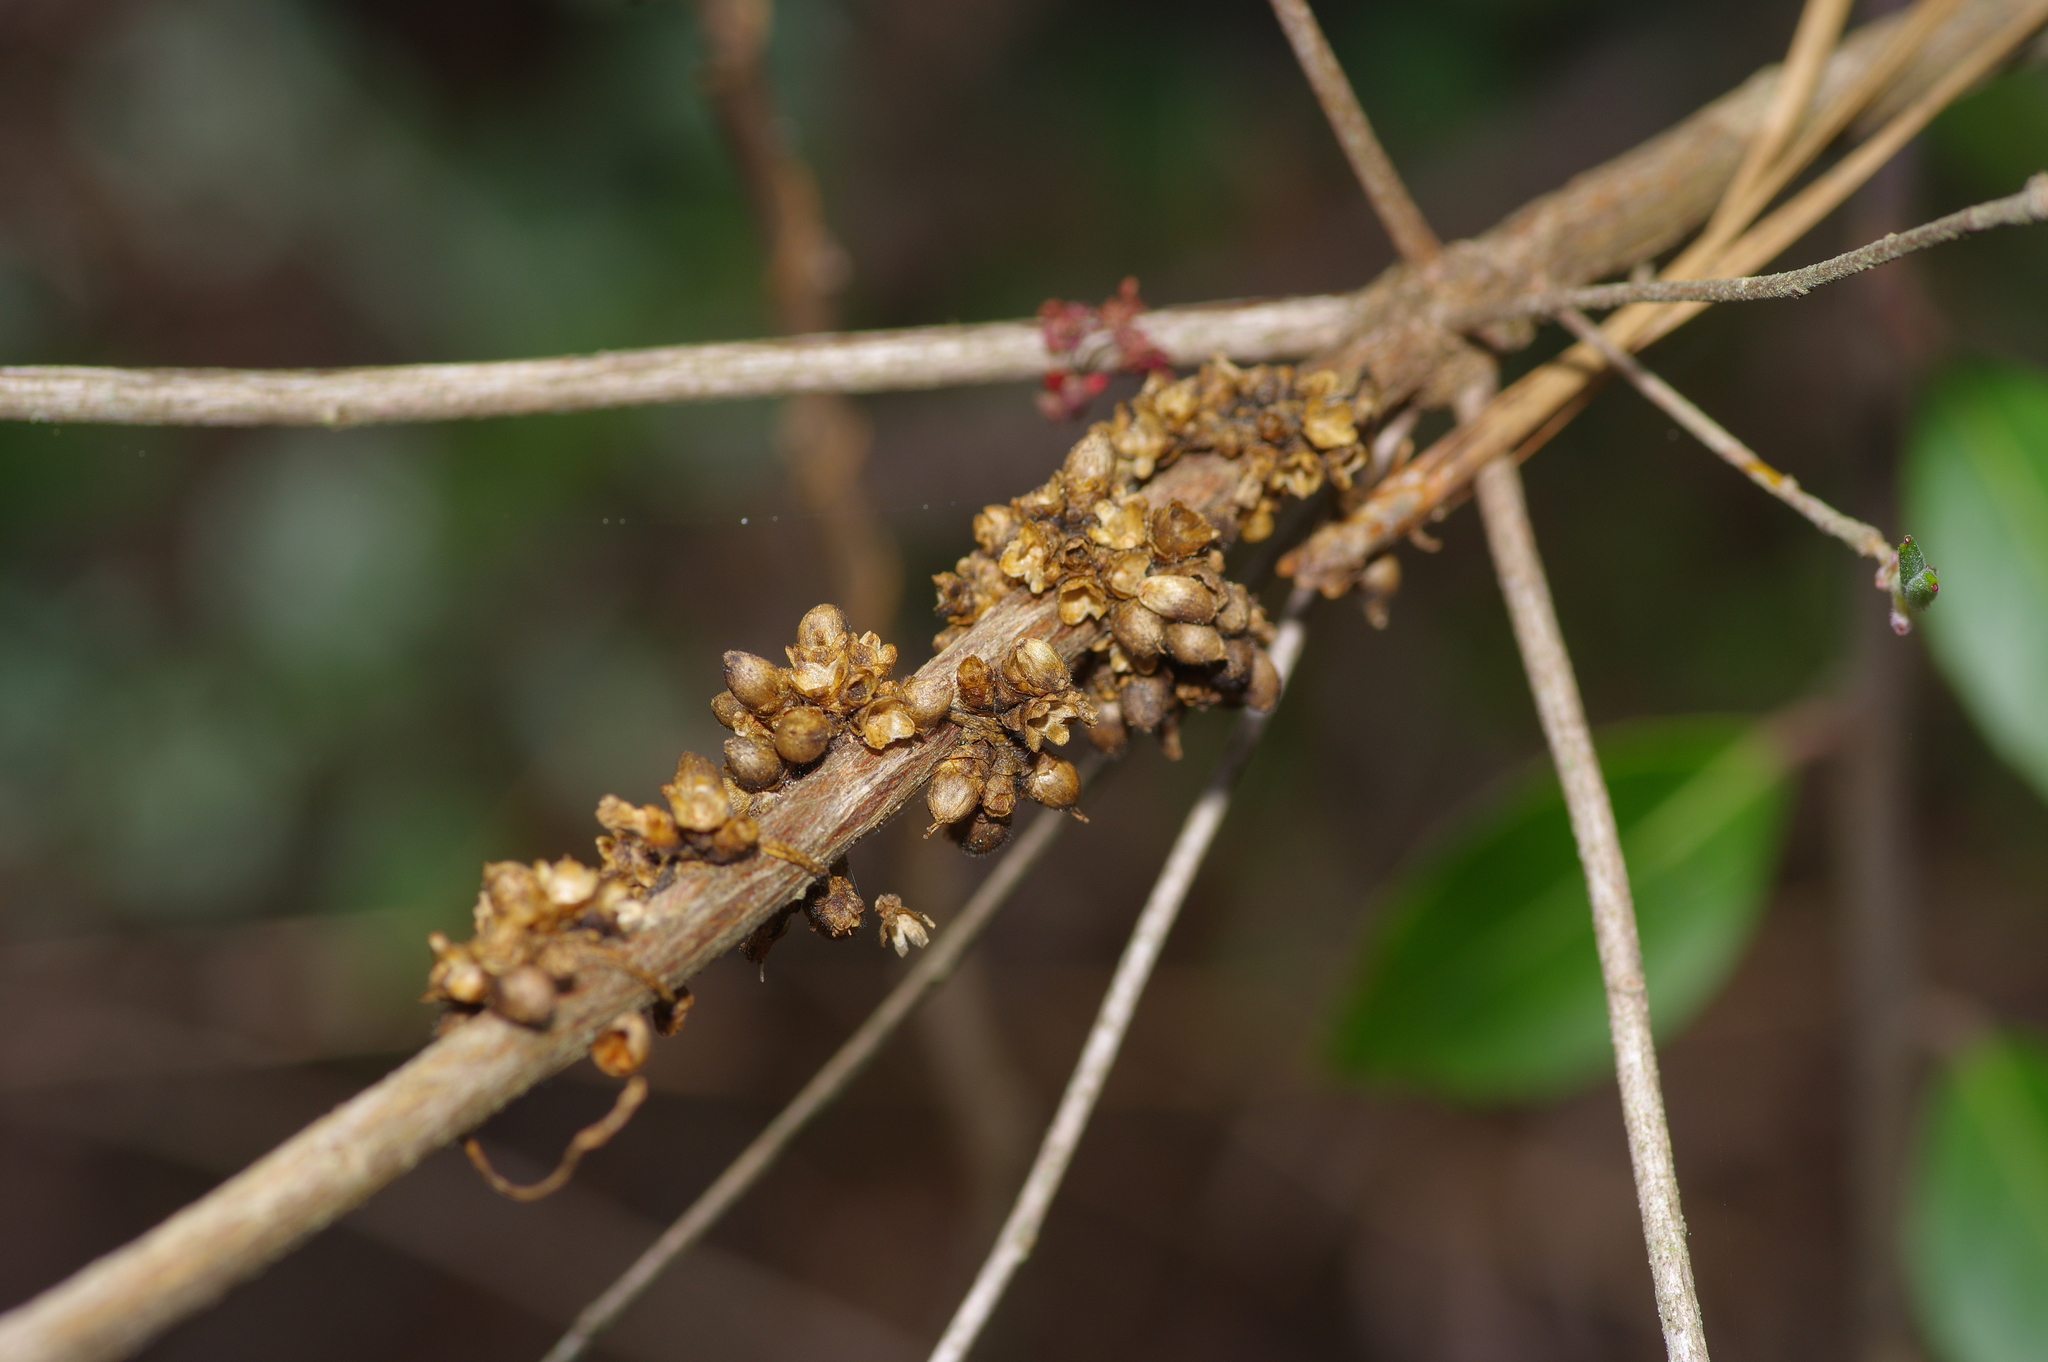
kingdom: Plantae
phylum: Tracheophyta
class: Magnoliopsida
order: Solanales
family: Convolvulaceae
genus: Cuscuta
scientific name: Cuscuta compacta
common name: Compact dodder
